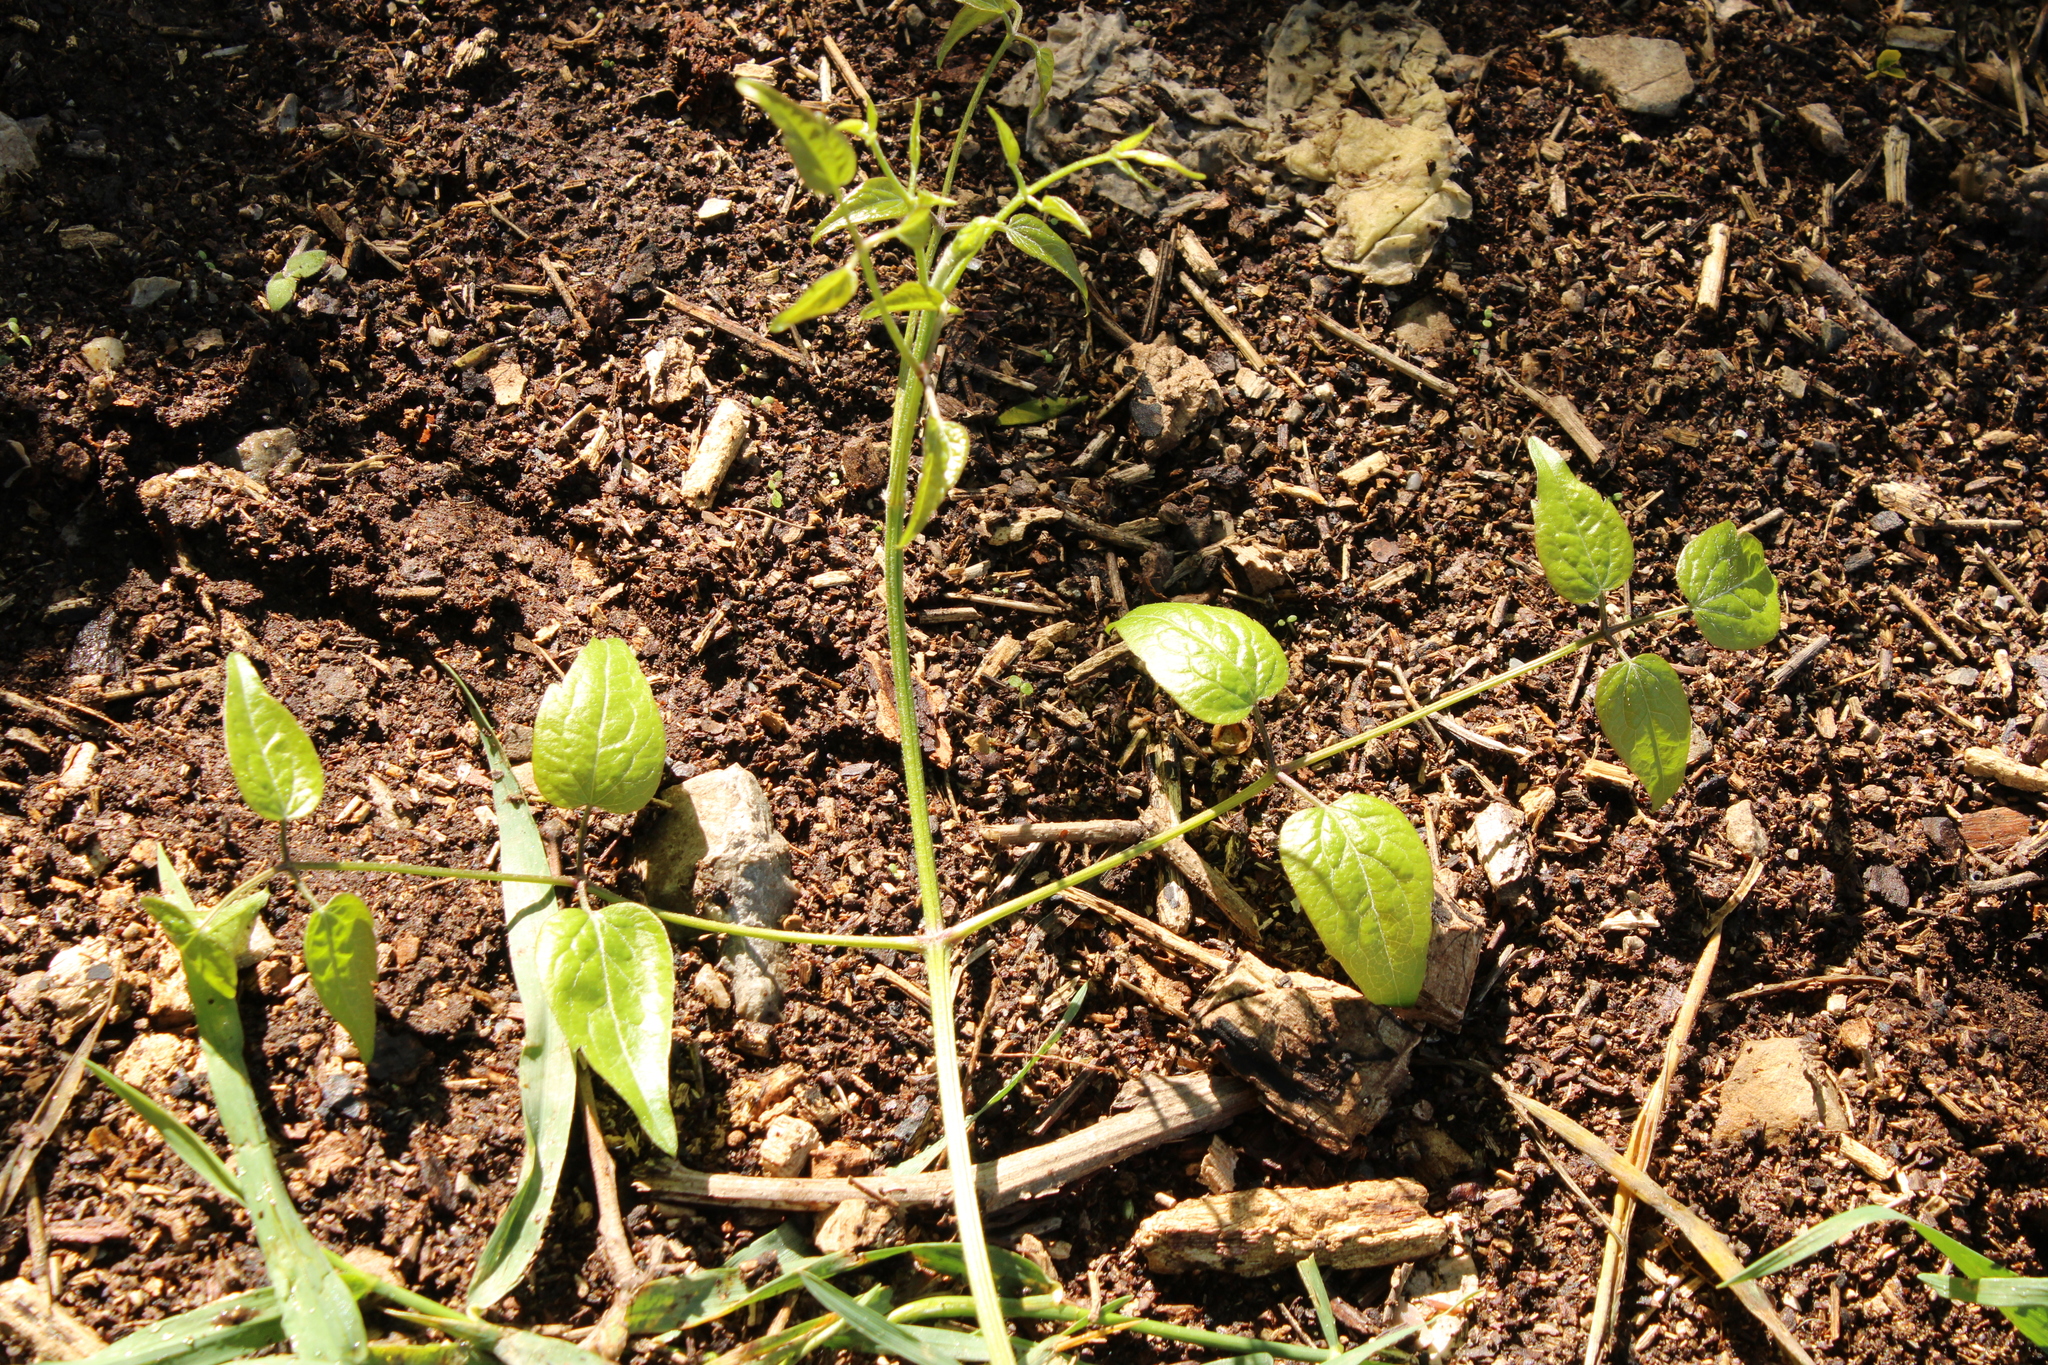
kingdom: Plantae
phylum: Tracheophyta
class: Magnoliopsida
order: Ranunculales
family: Ranunculaceae
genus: Clematis
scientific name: Clematis vitalba
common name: Evergreen clematis
